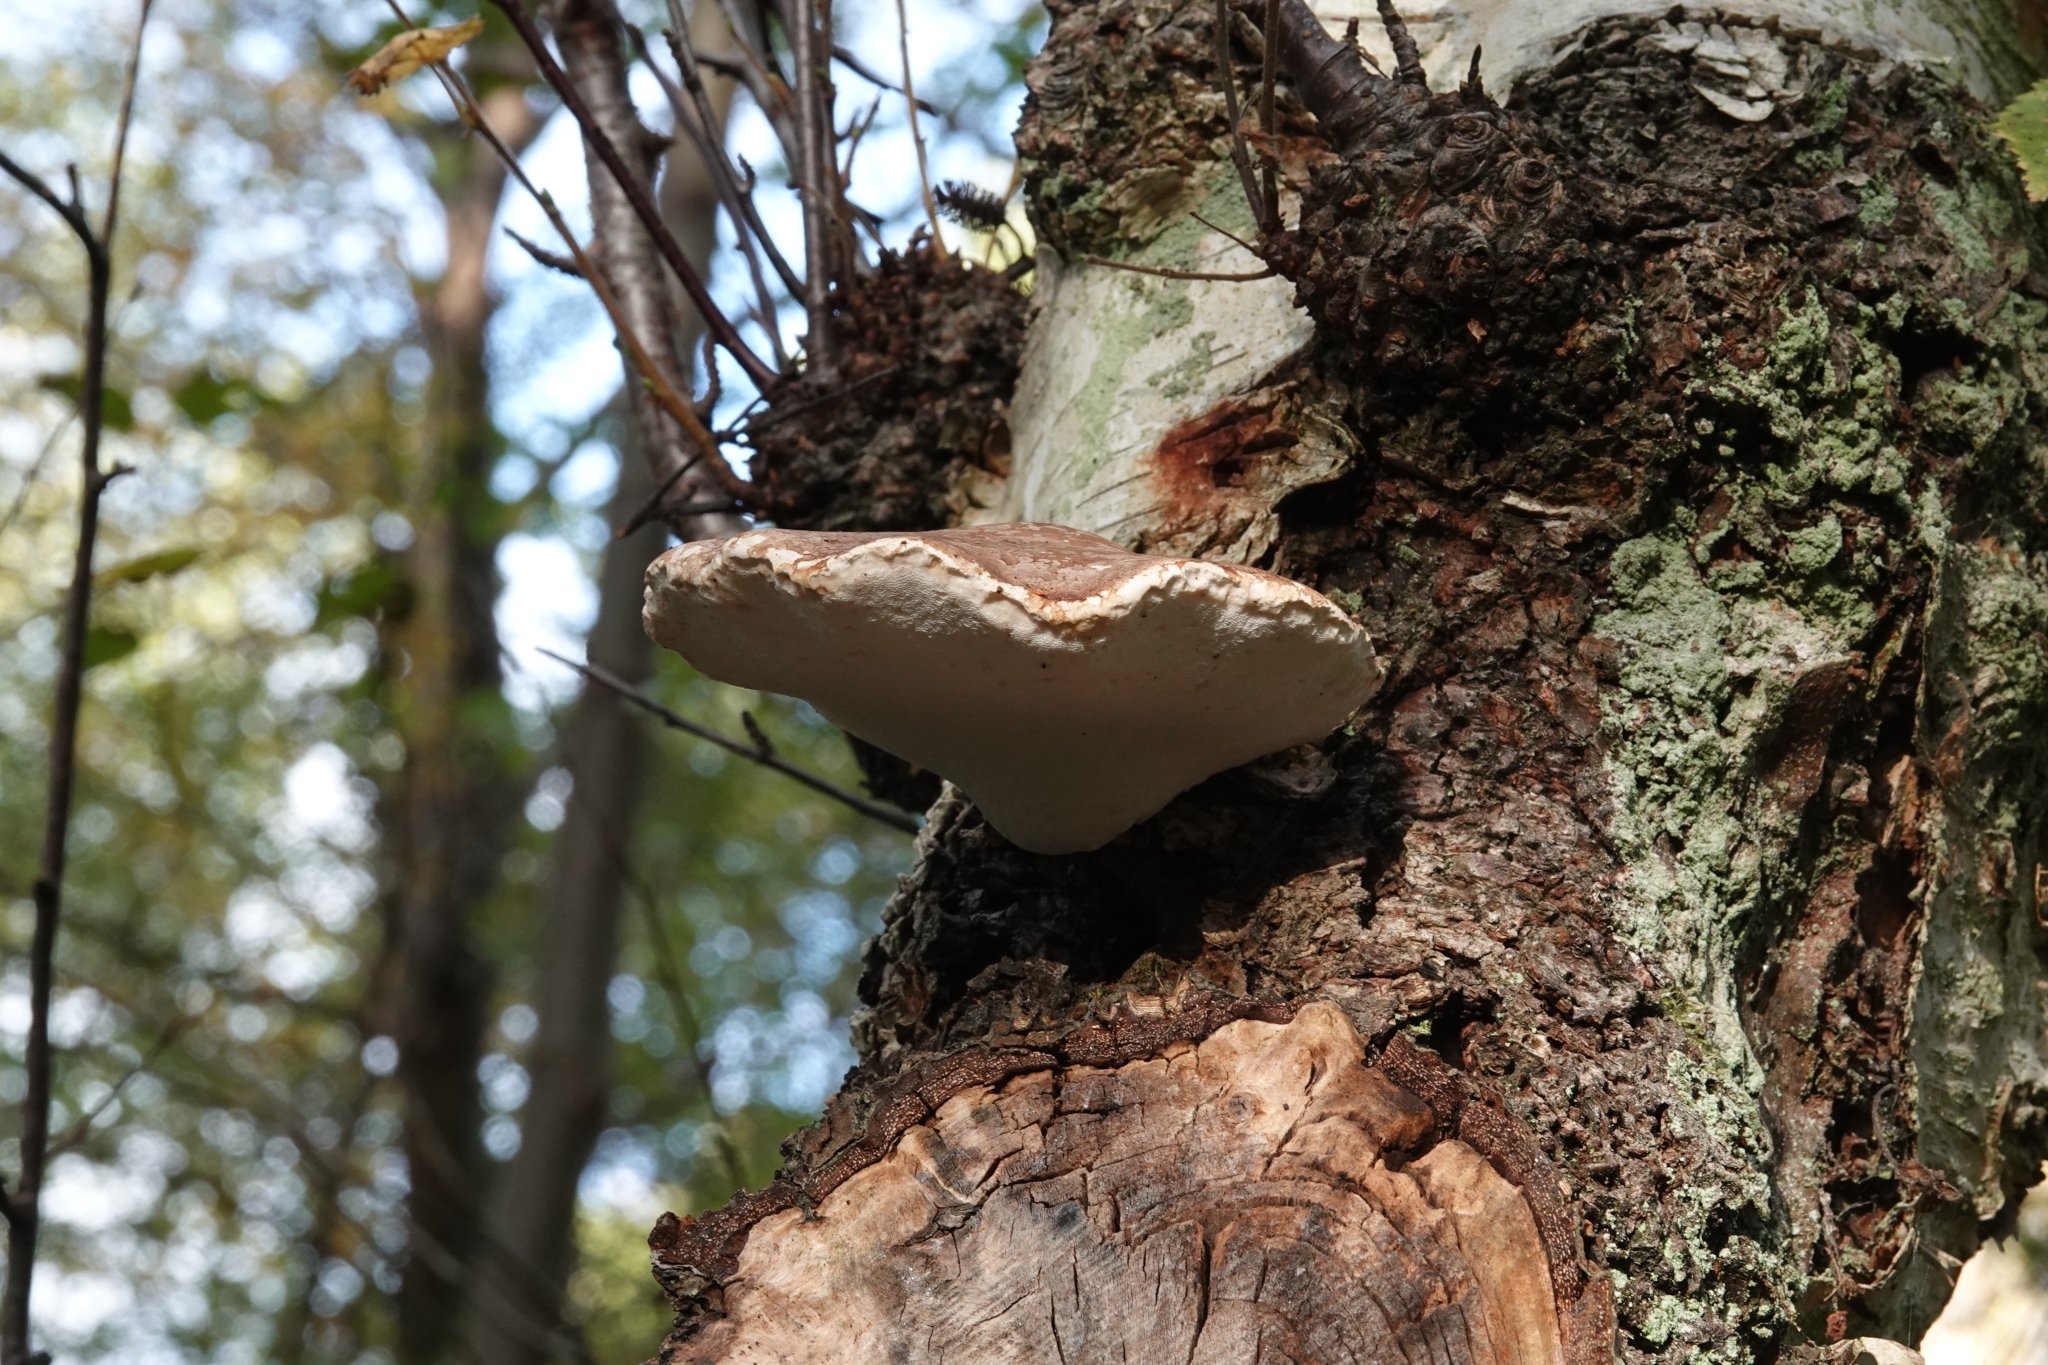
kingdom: Fungi
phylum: Basidiomycota
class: Agaricomycetes
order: Polyporales
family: Fomitopsidaceae
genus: Fomitopsis
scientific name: Fomitopsis betulina
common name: Birch polypore
